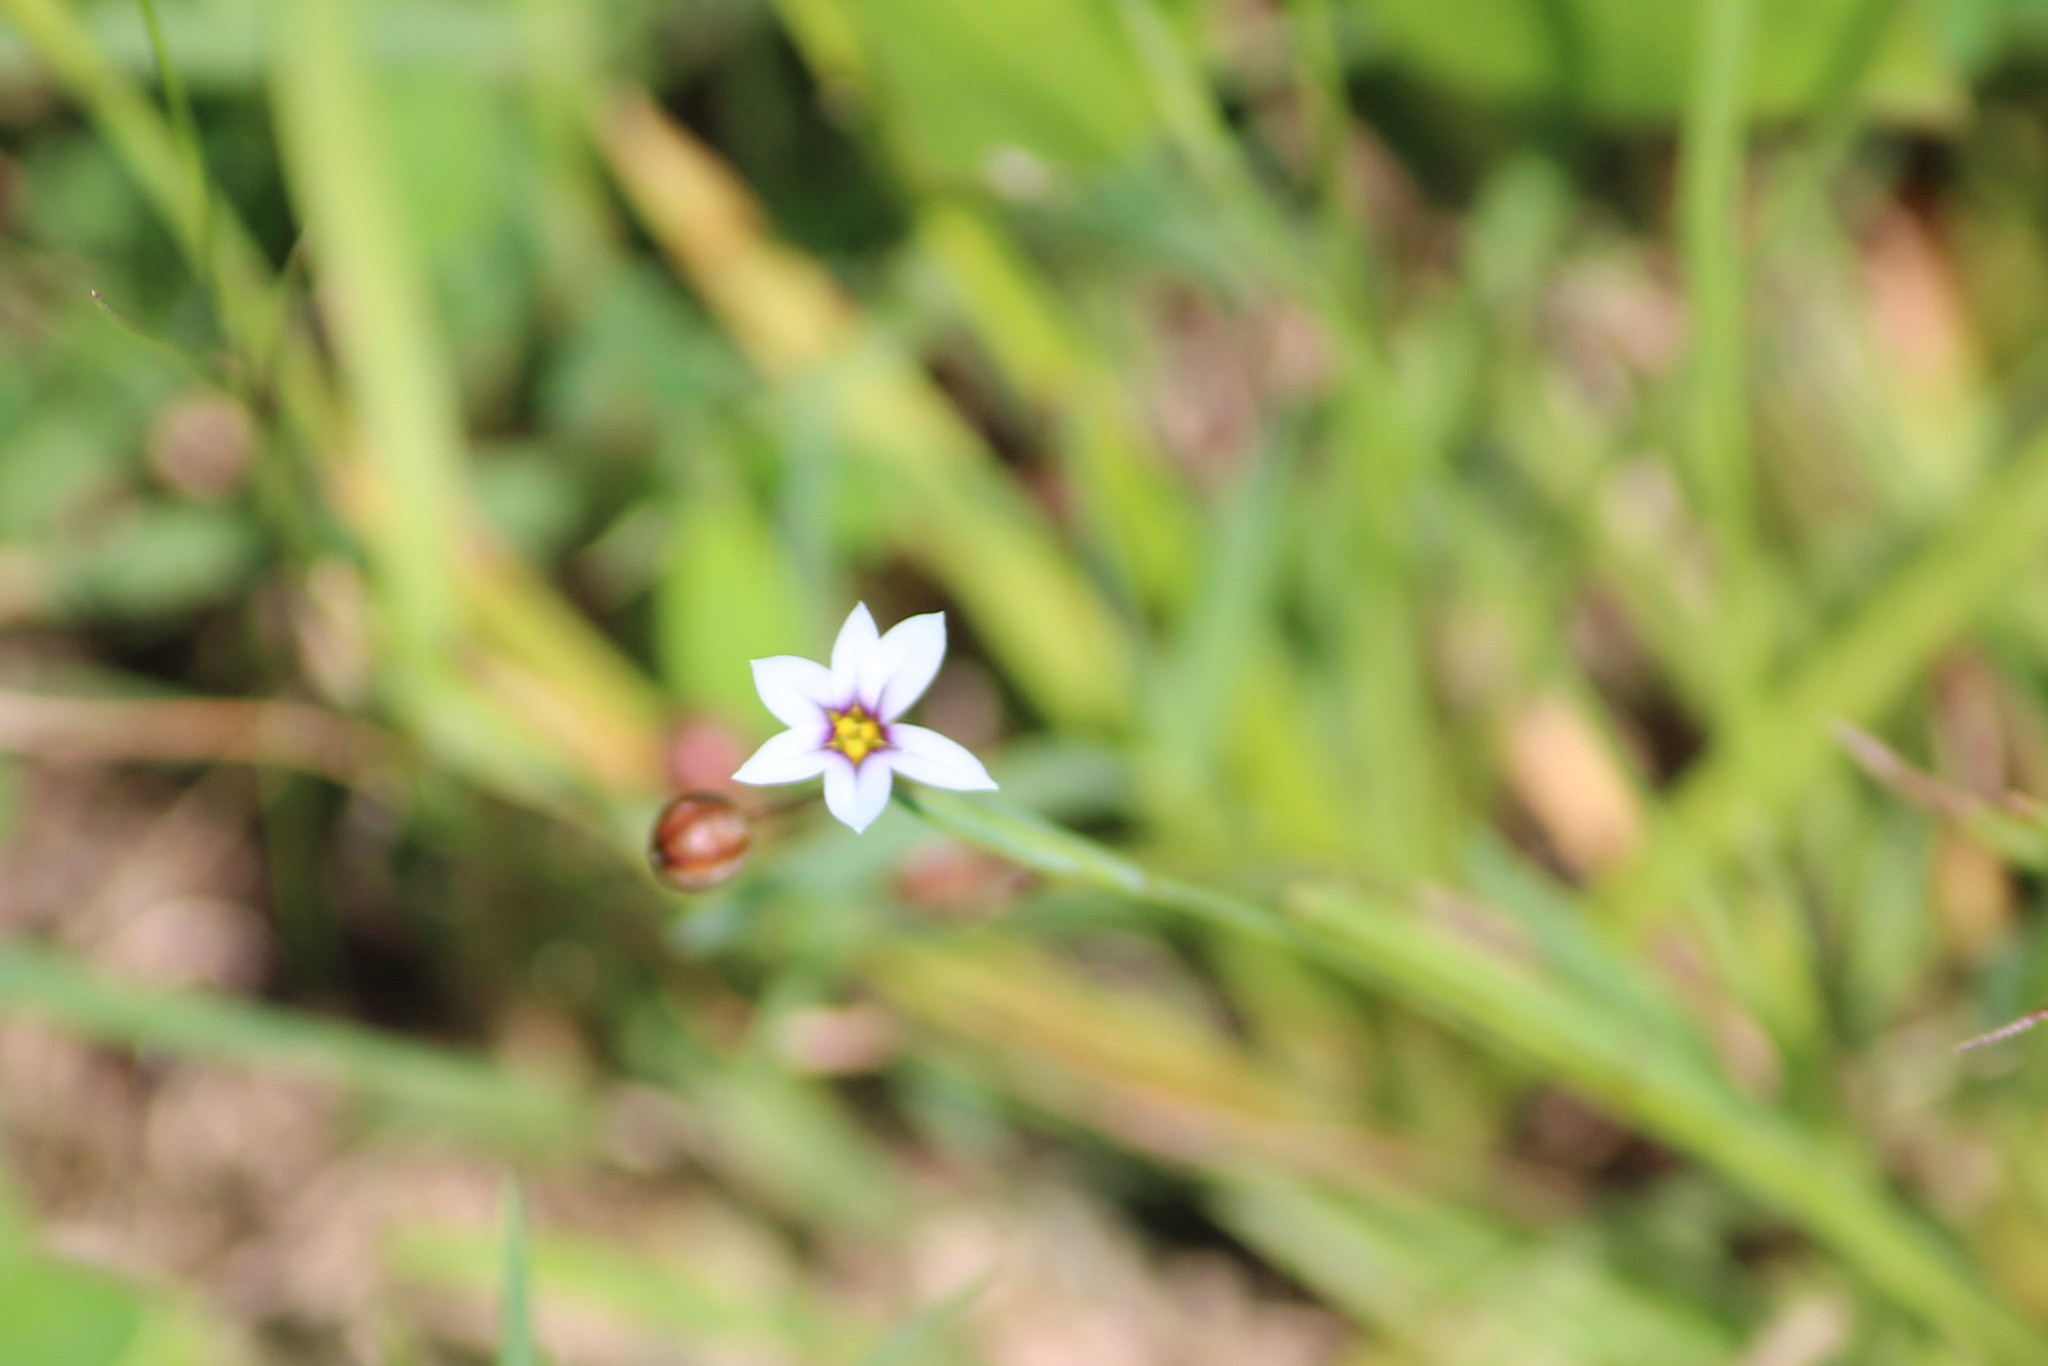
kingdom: Plantae
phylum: Tracheophyta
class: Liliopsida
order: Asparagales
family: Iridaceae
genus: Sisyrinchium
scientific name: Sisyrinchium micranthum
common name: Bermuda pigroot
